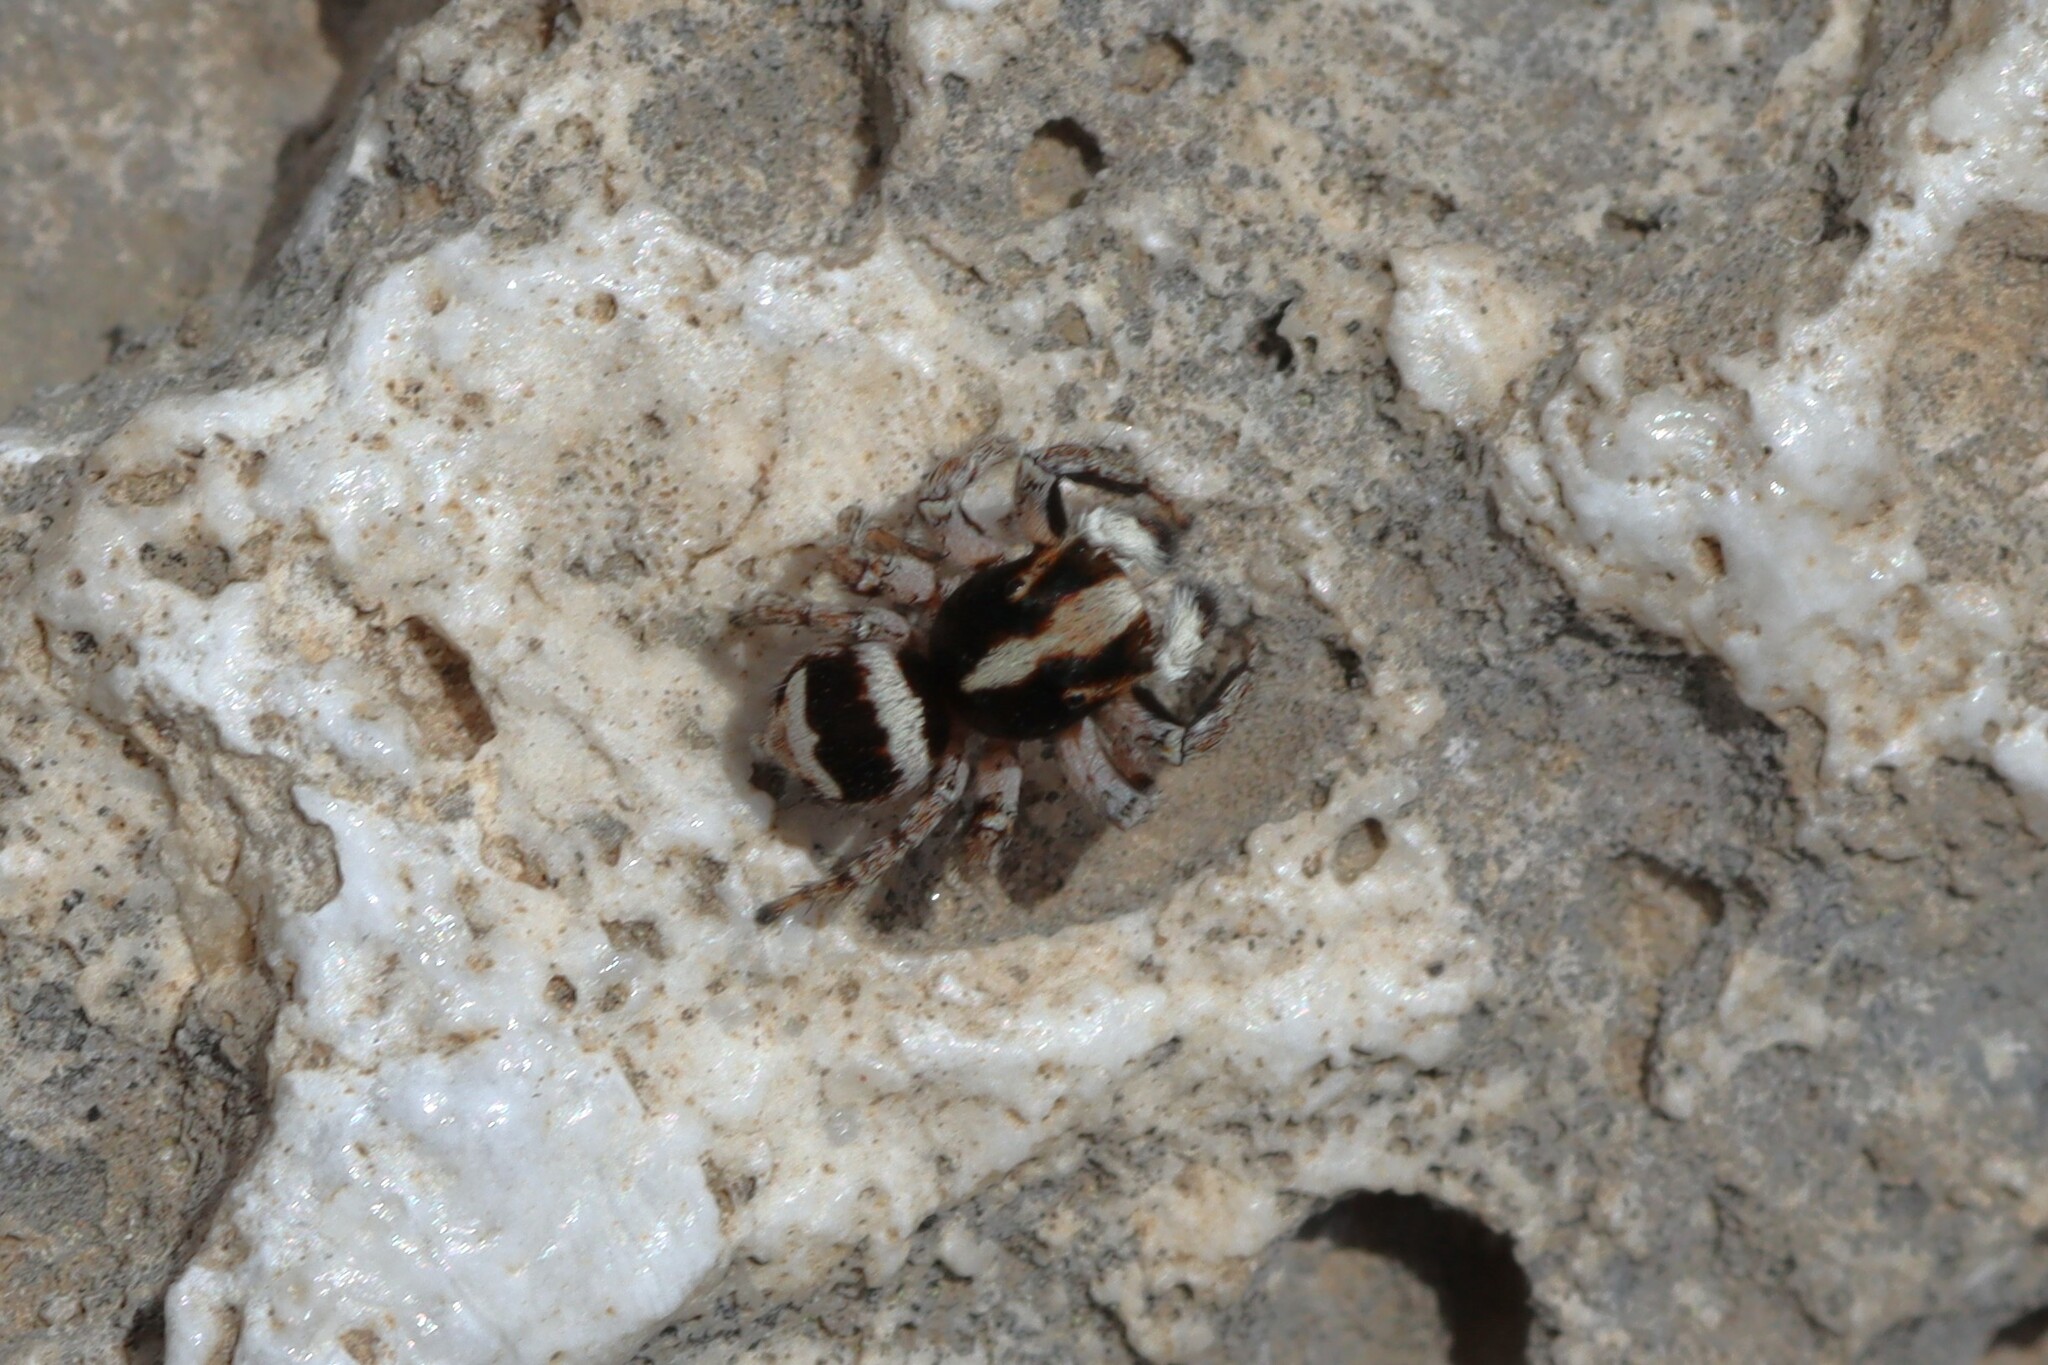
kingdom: Animalia
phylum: Arthropoda
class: Arachnida
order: Araneae
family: Salticidae
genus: Habrocestum
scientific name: Habrocestum latifasciatum
